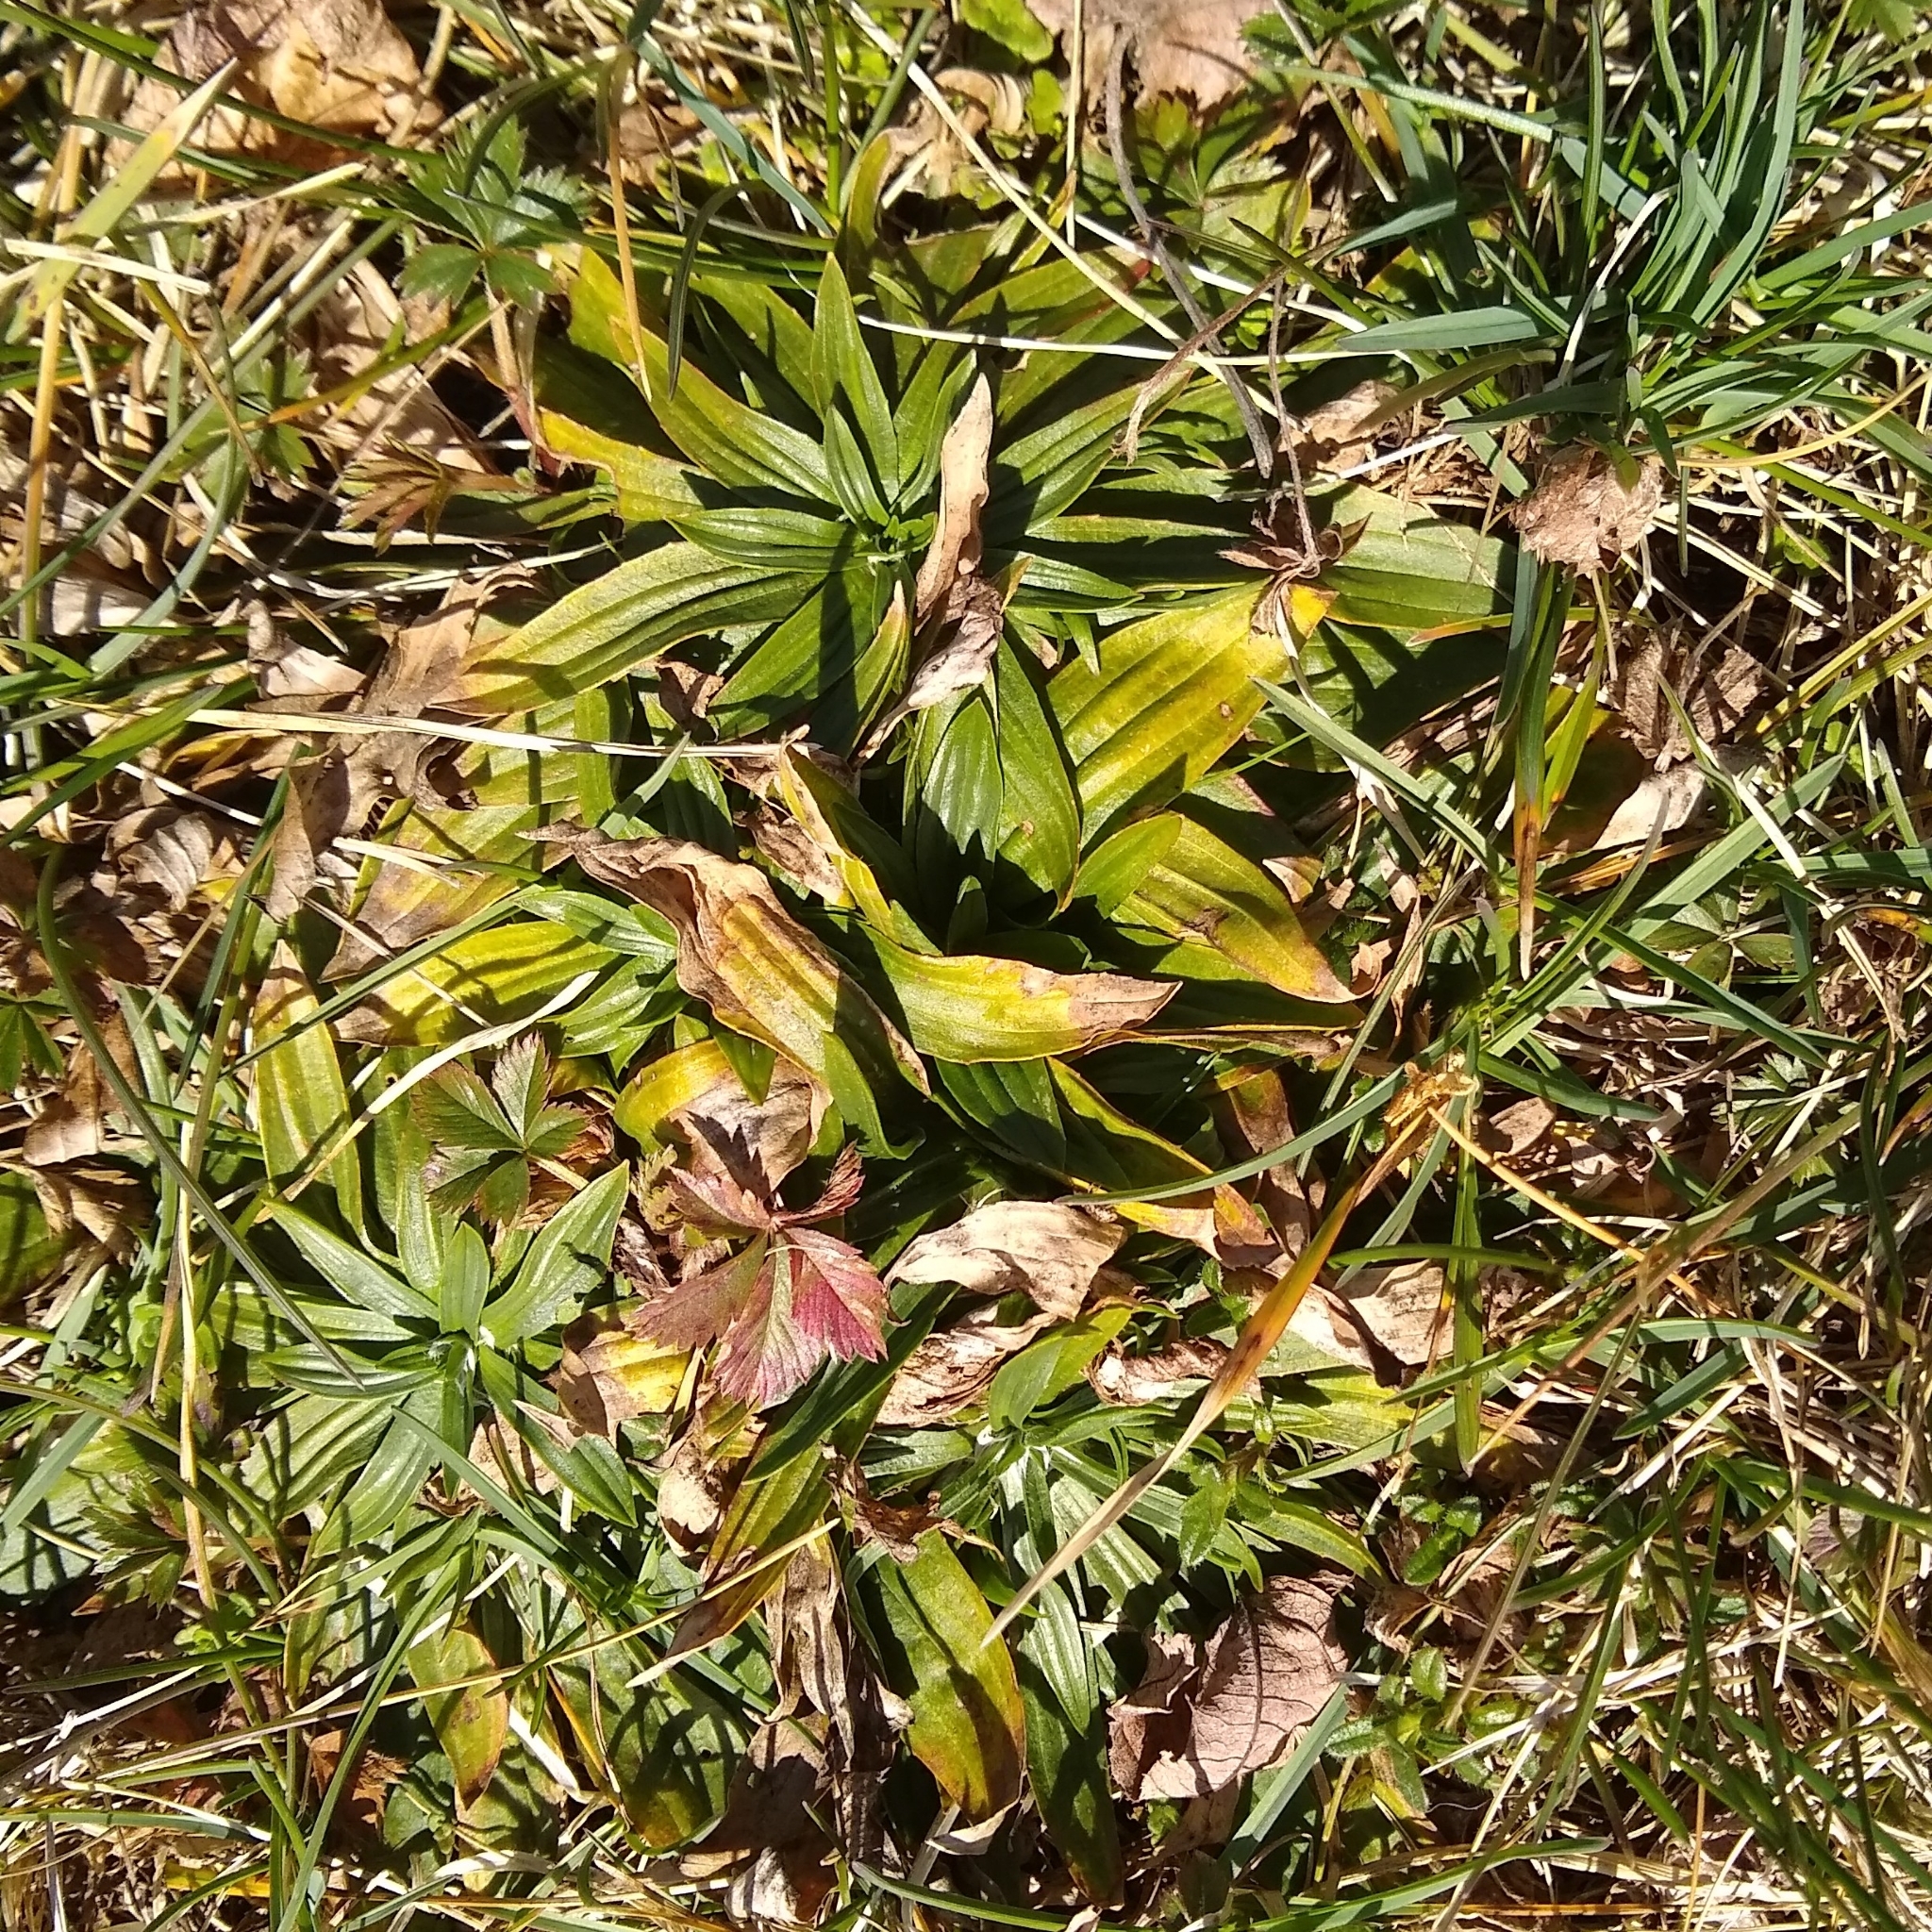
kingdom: Plantae
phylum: Tracheophyta
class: Magnoliopsida
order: Lamiales
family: Plantaginaceae
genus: Plantago
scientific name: Plantago lanceolata
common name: Ribwort plantain
